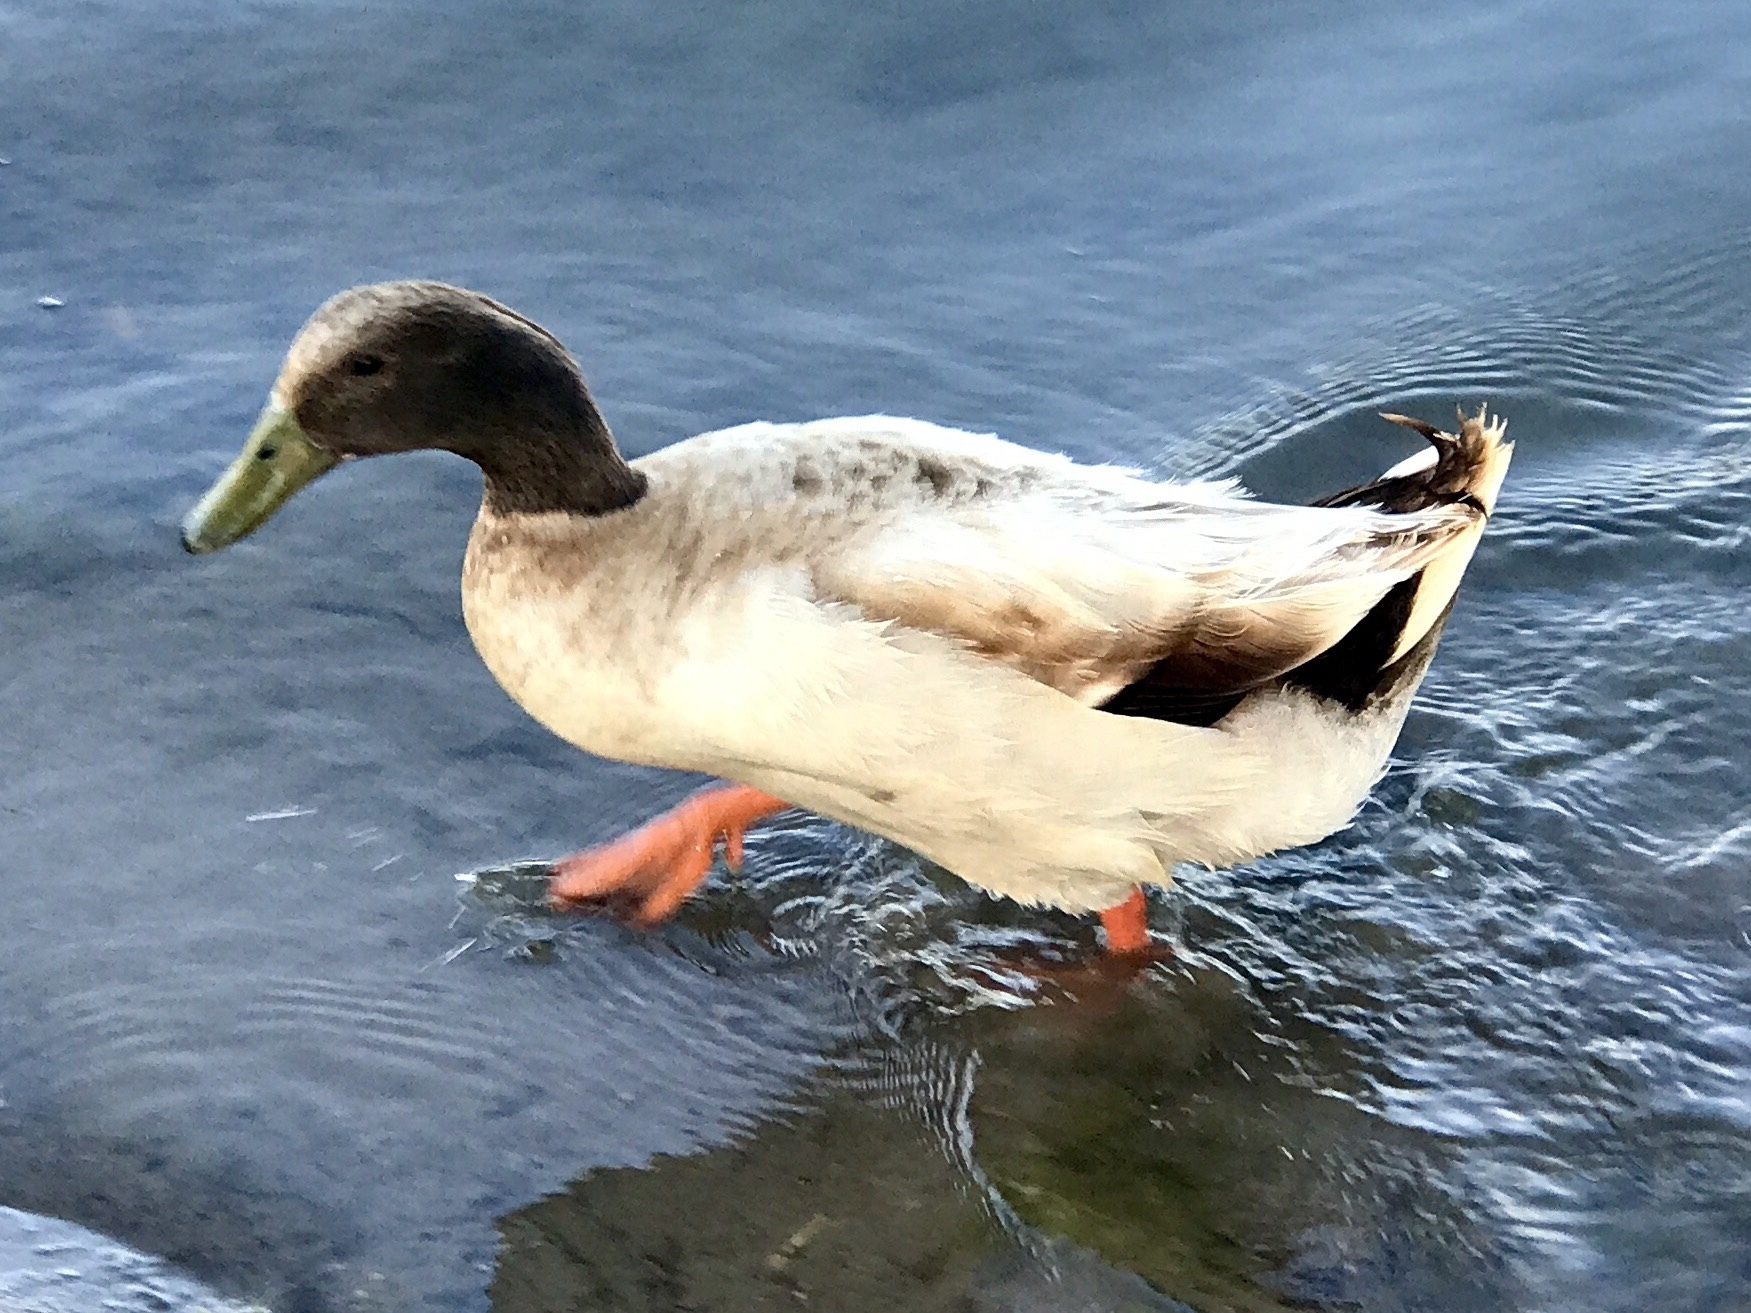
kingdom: Animalia
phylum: Chordata
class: Aves
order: Anseriformes
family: Anatidae
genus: Anas
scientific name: Anas platyrhynchos
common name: Mallard
